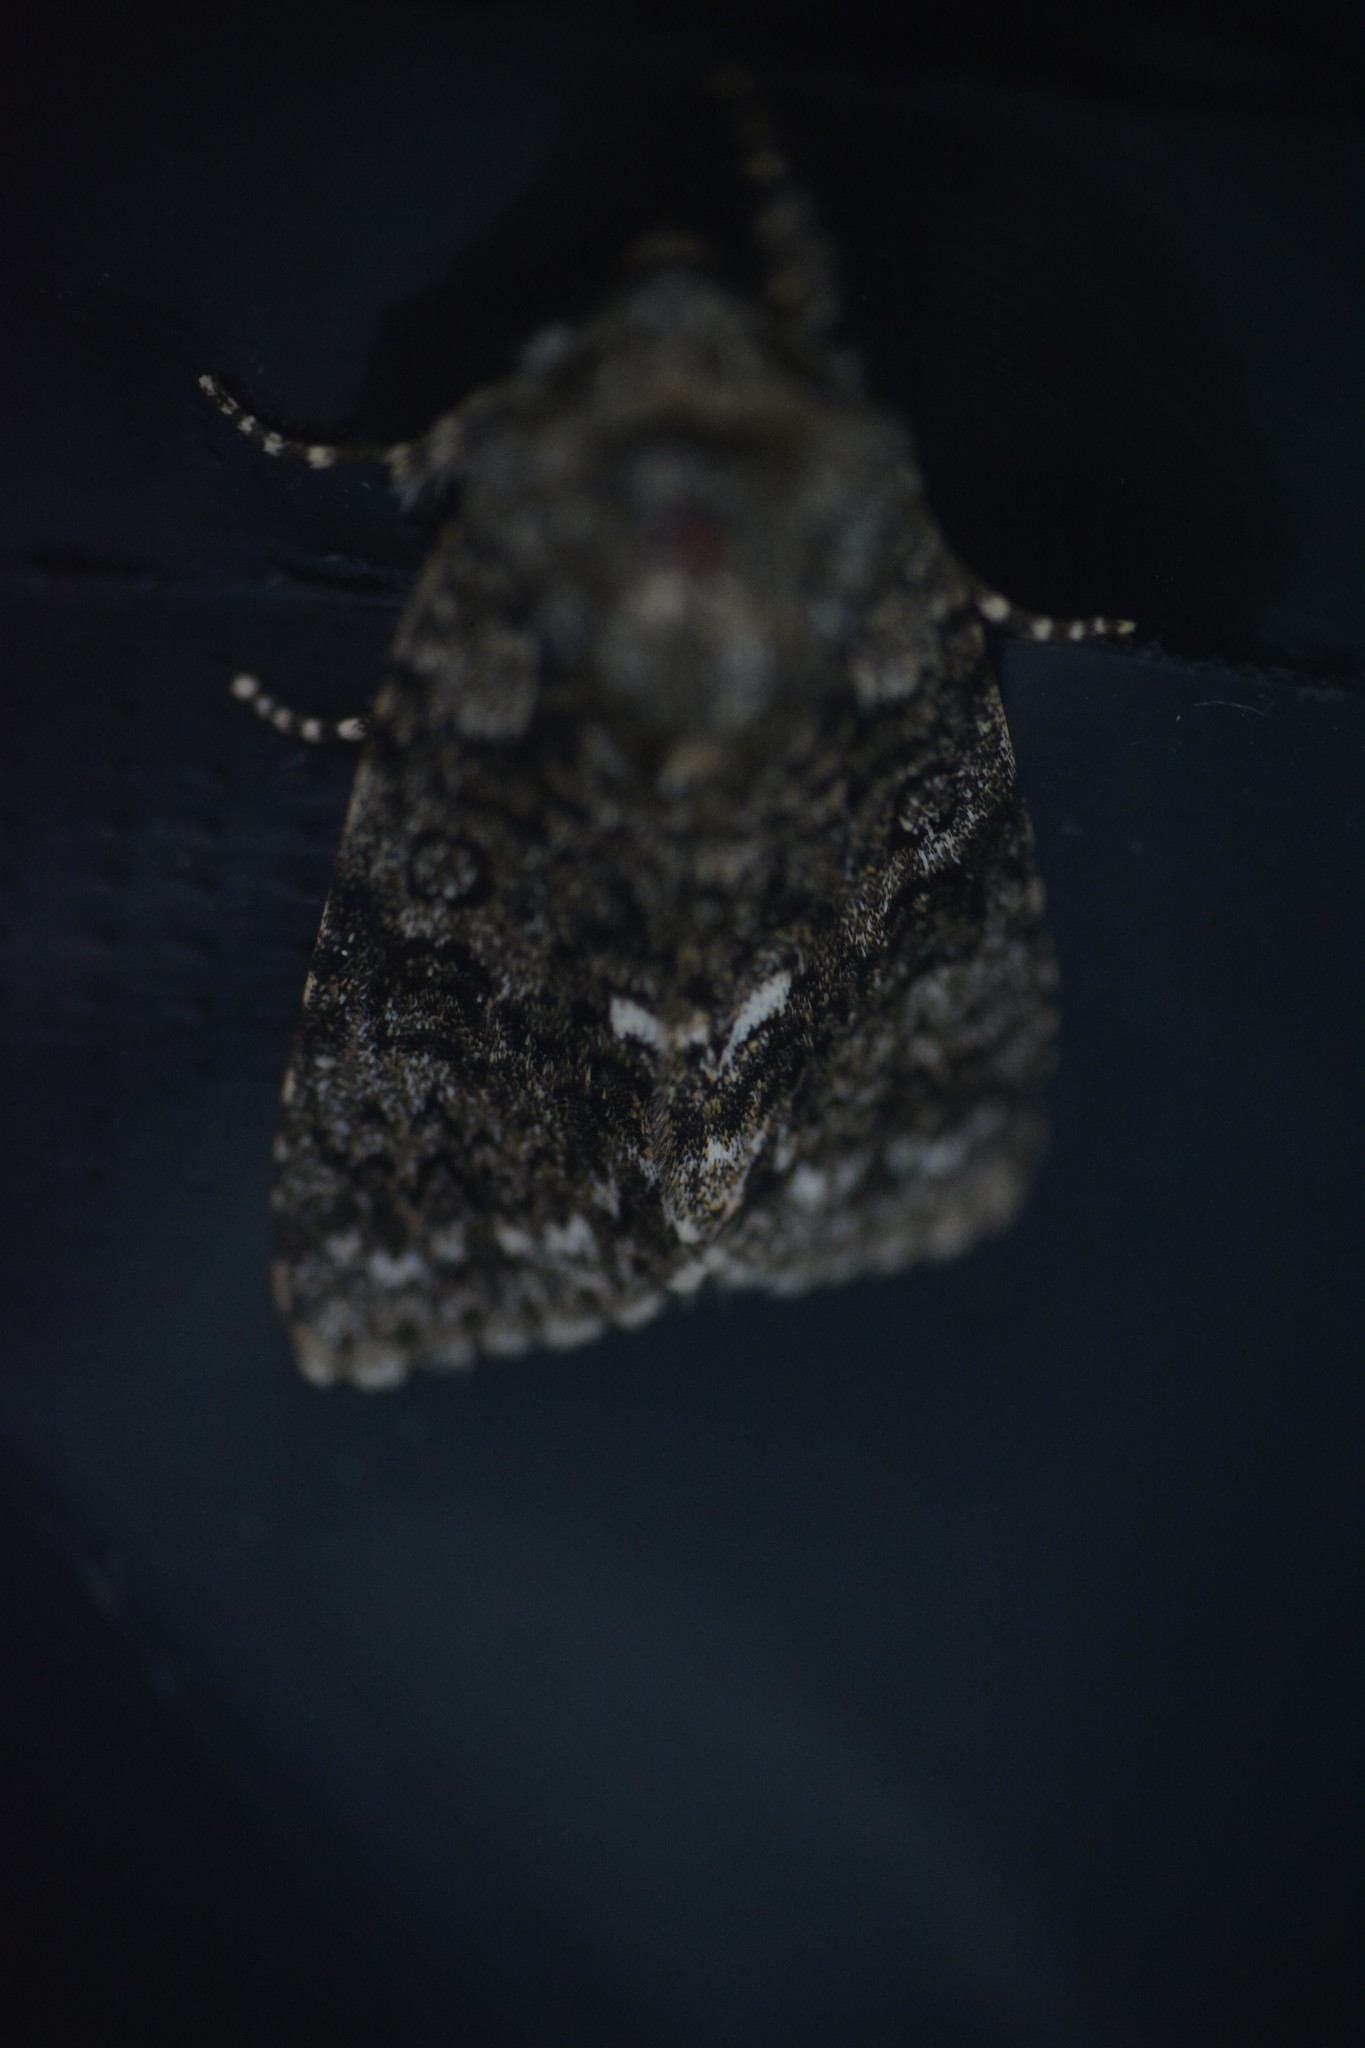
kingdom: Animalia
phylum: Arthropoda
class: Insecta
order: Lepidoptera
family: Noctuidae
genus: Acronicta
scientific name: Acronicta rumicis
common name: Knot grass
